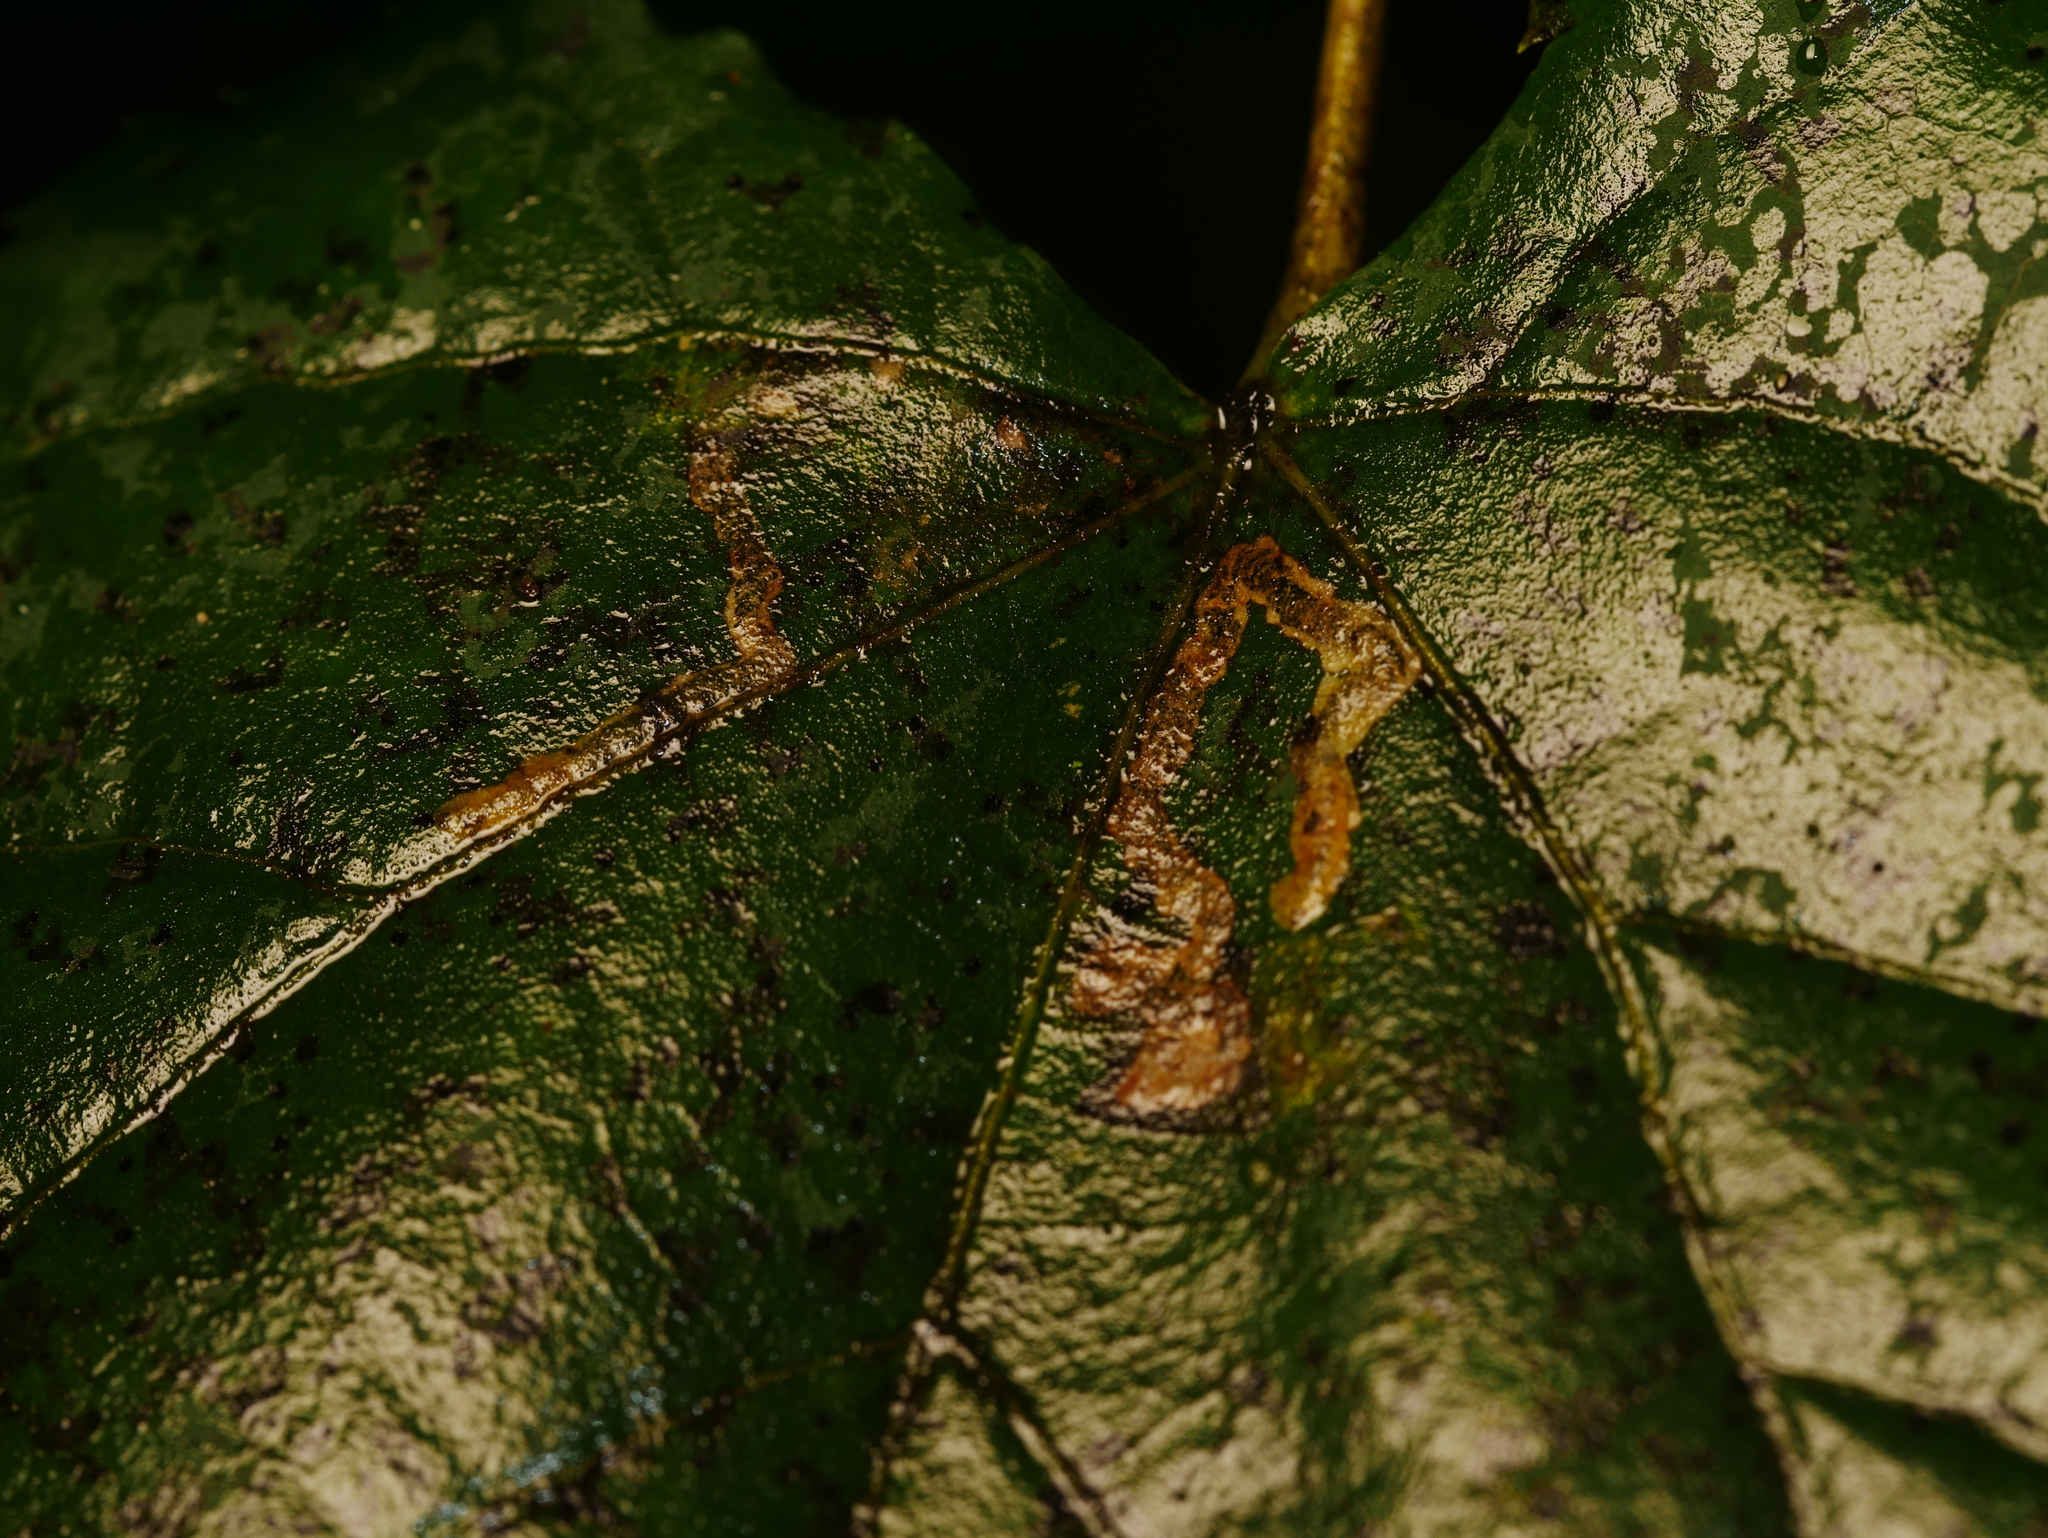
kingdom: Animalia
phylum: Arthropoda
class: Insecta
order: Lepidoptera
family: Nepticulidae
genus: Stigmella
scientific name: Stigmella tiliae
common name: Lime pigmy
